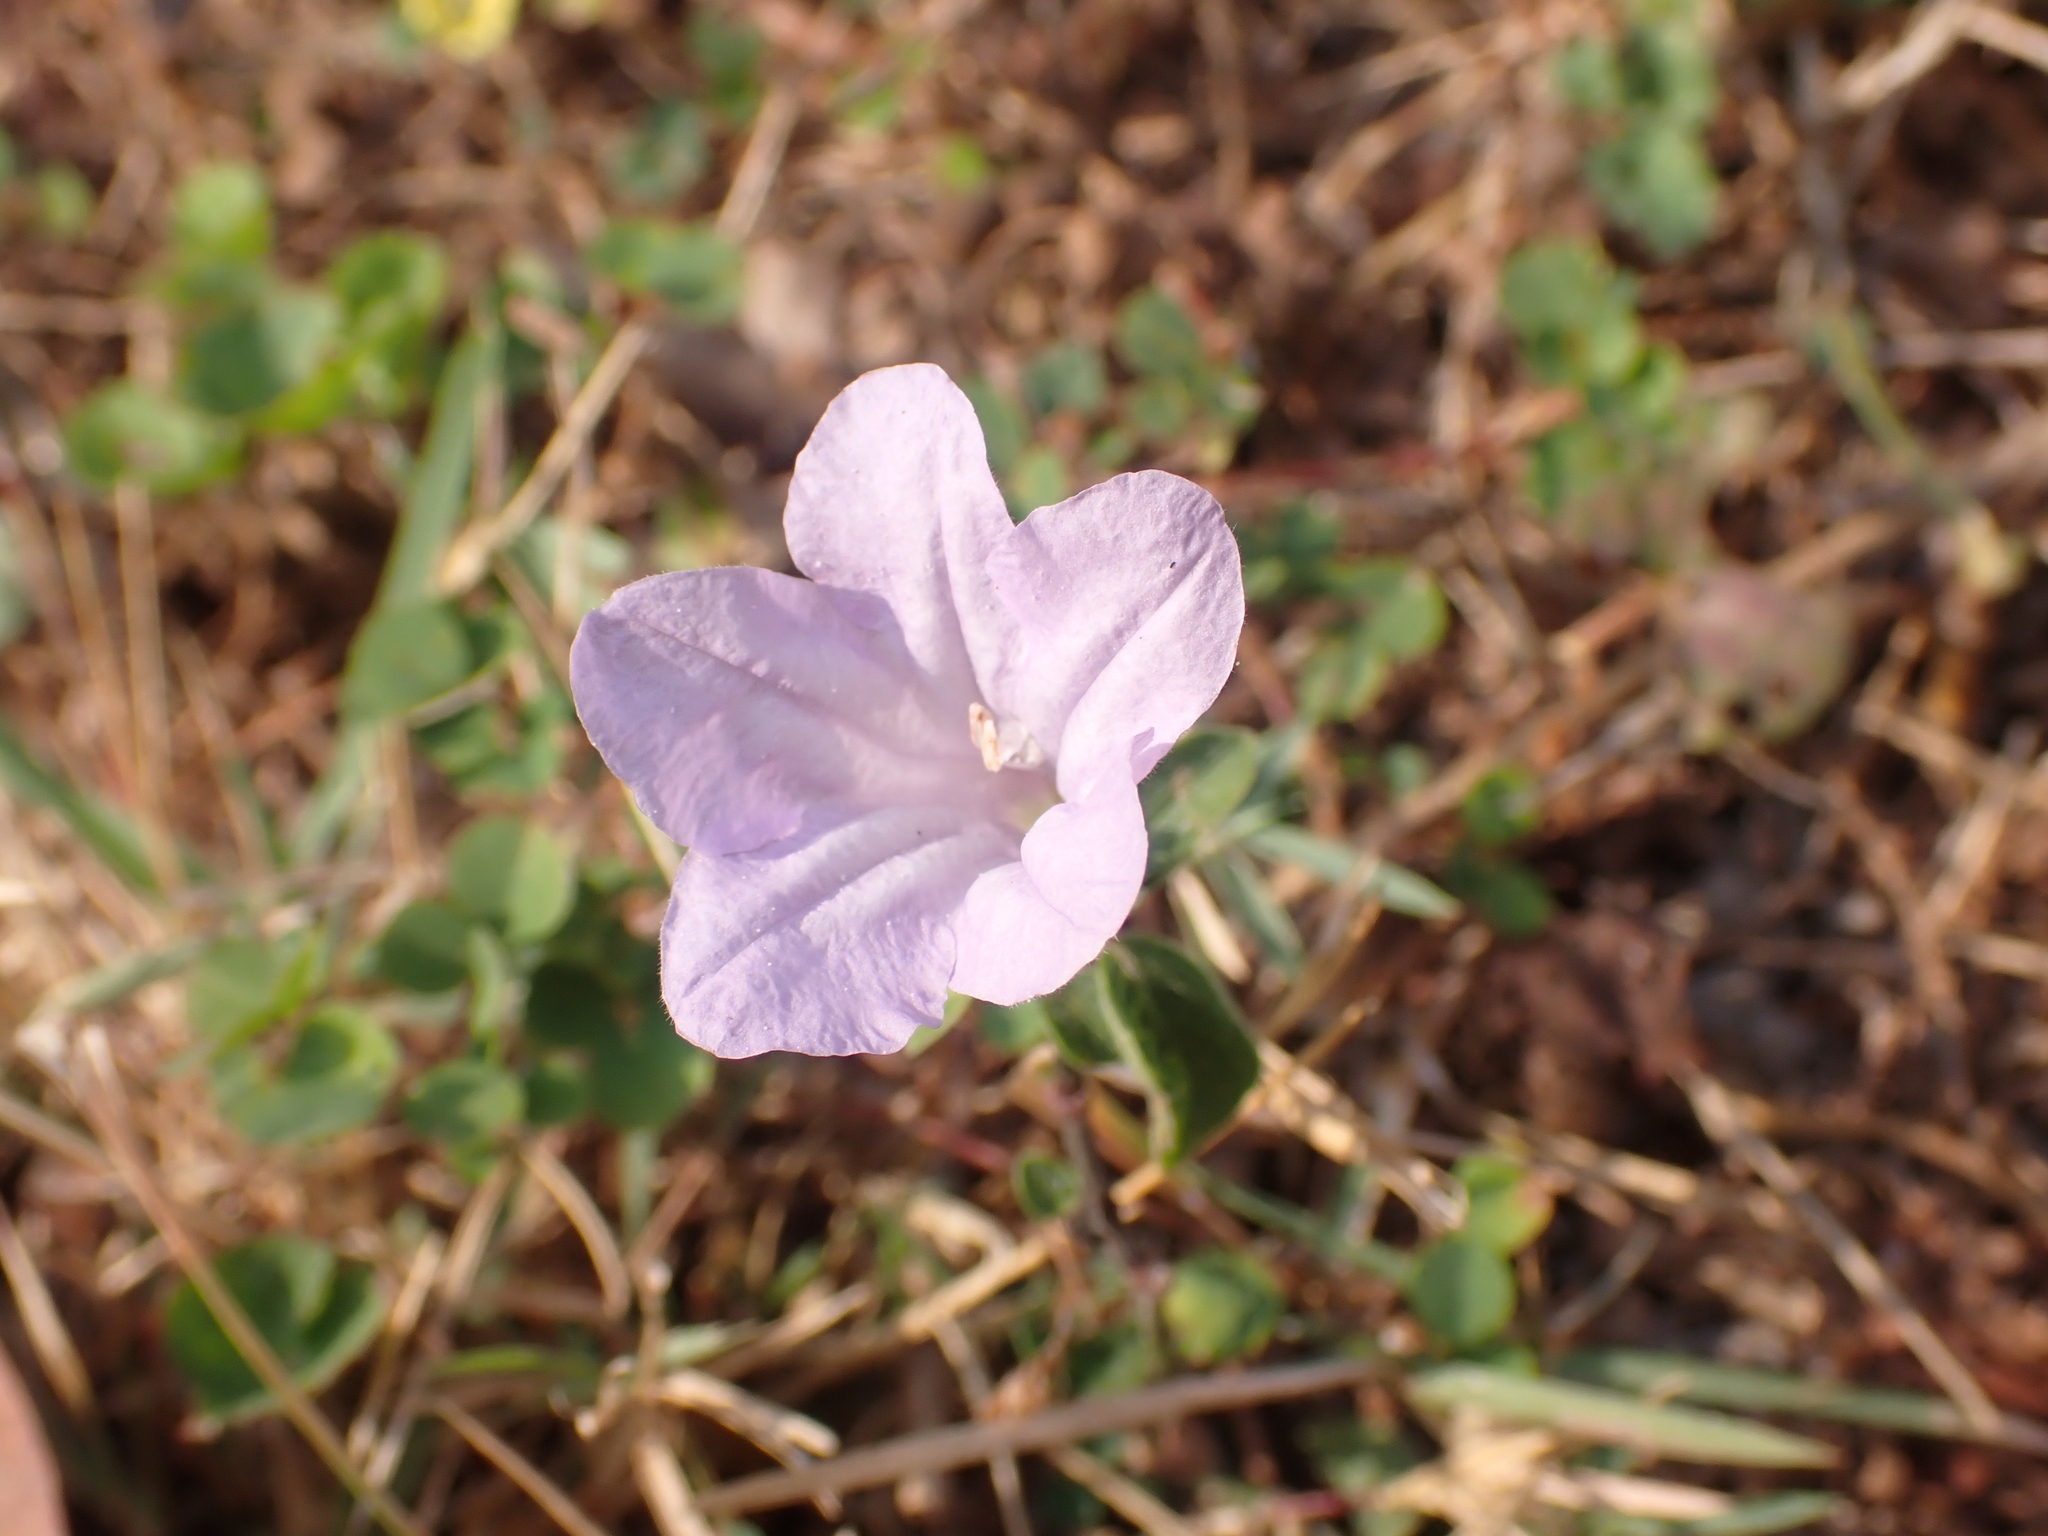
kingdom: Plantae
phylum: Tracheophyta
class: Magnoliopsida
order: Lamiales
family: Acanthaceae
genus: Ruellia
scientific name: Ruellia prostrata
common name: Prostrate wild petunia
